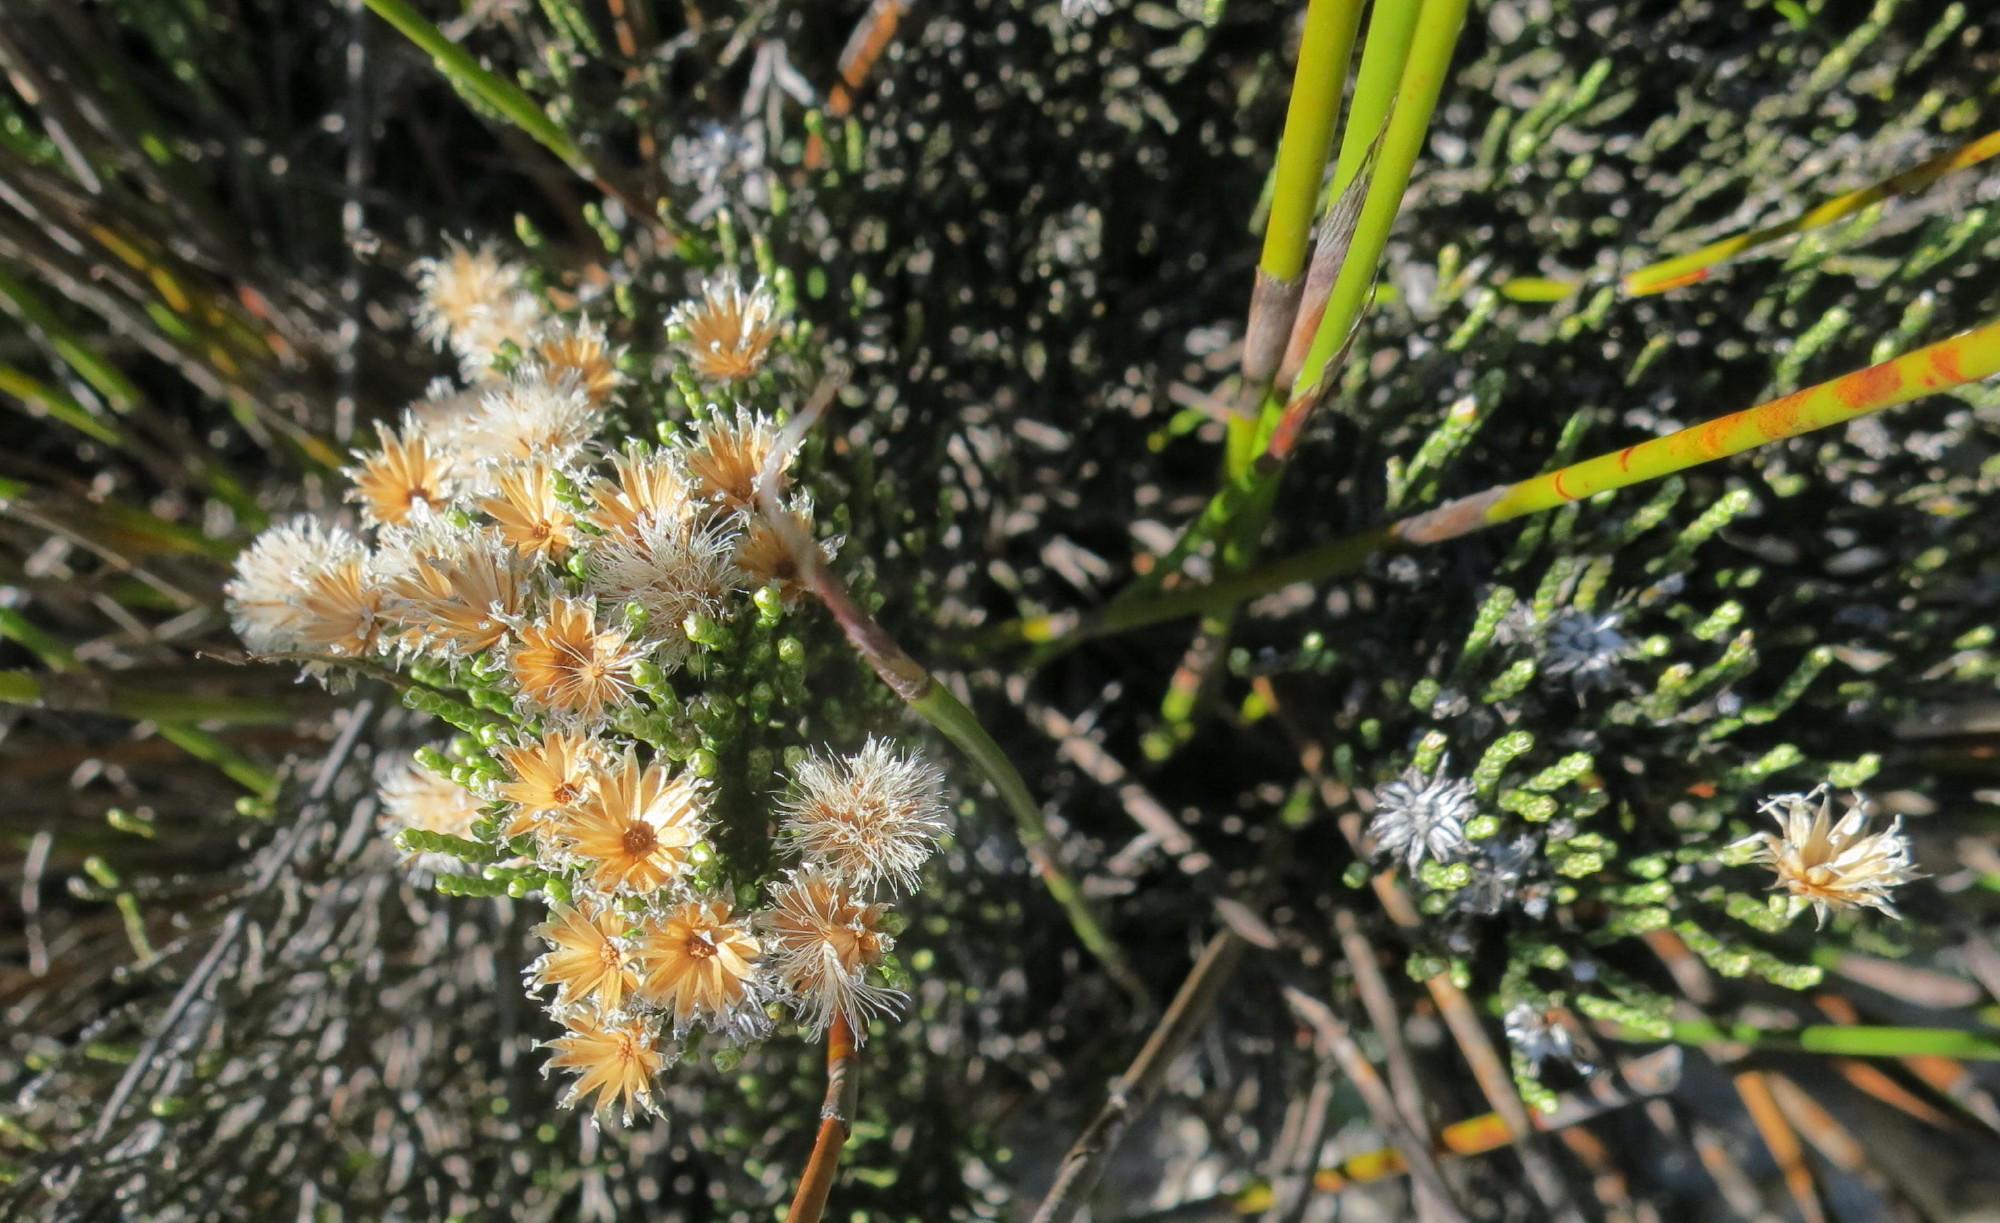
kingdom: Plantae
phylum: Tracheophyta
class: Magnoliopsida
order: Asterales
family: Asteraceae
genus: Dolichothrix
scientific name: Dolichothrix ericoides
